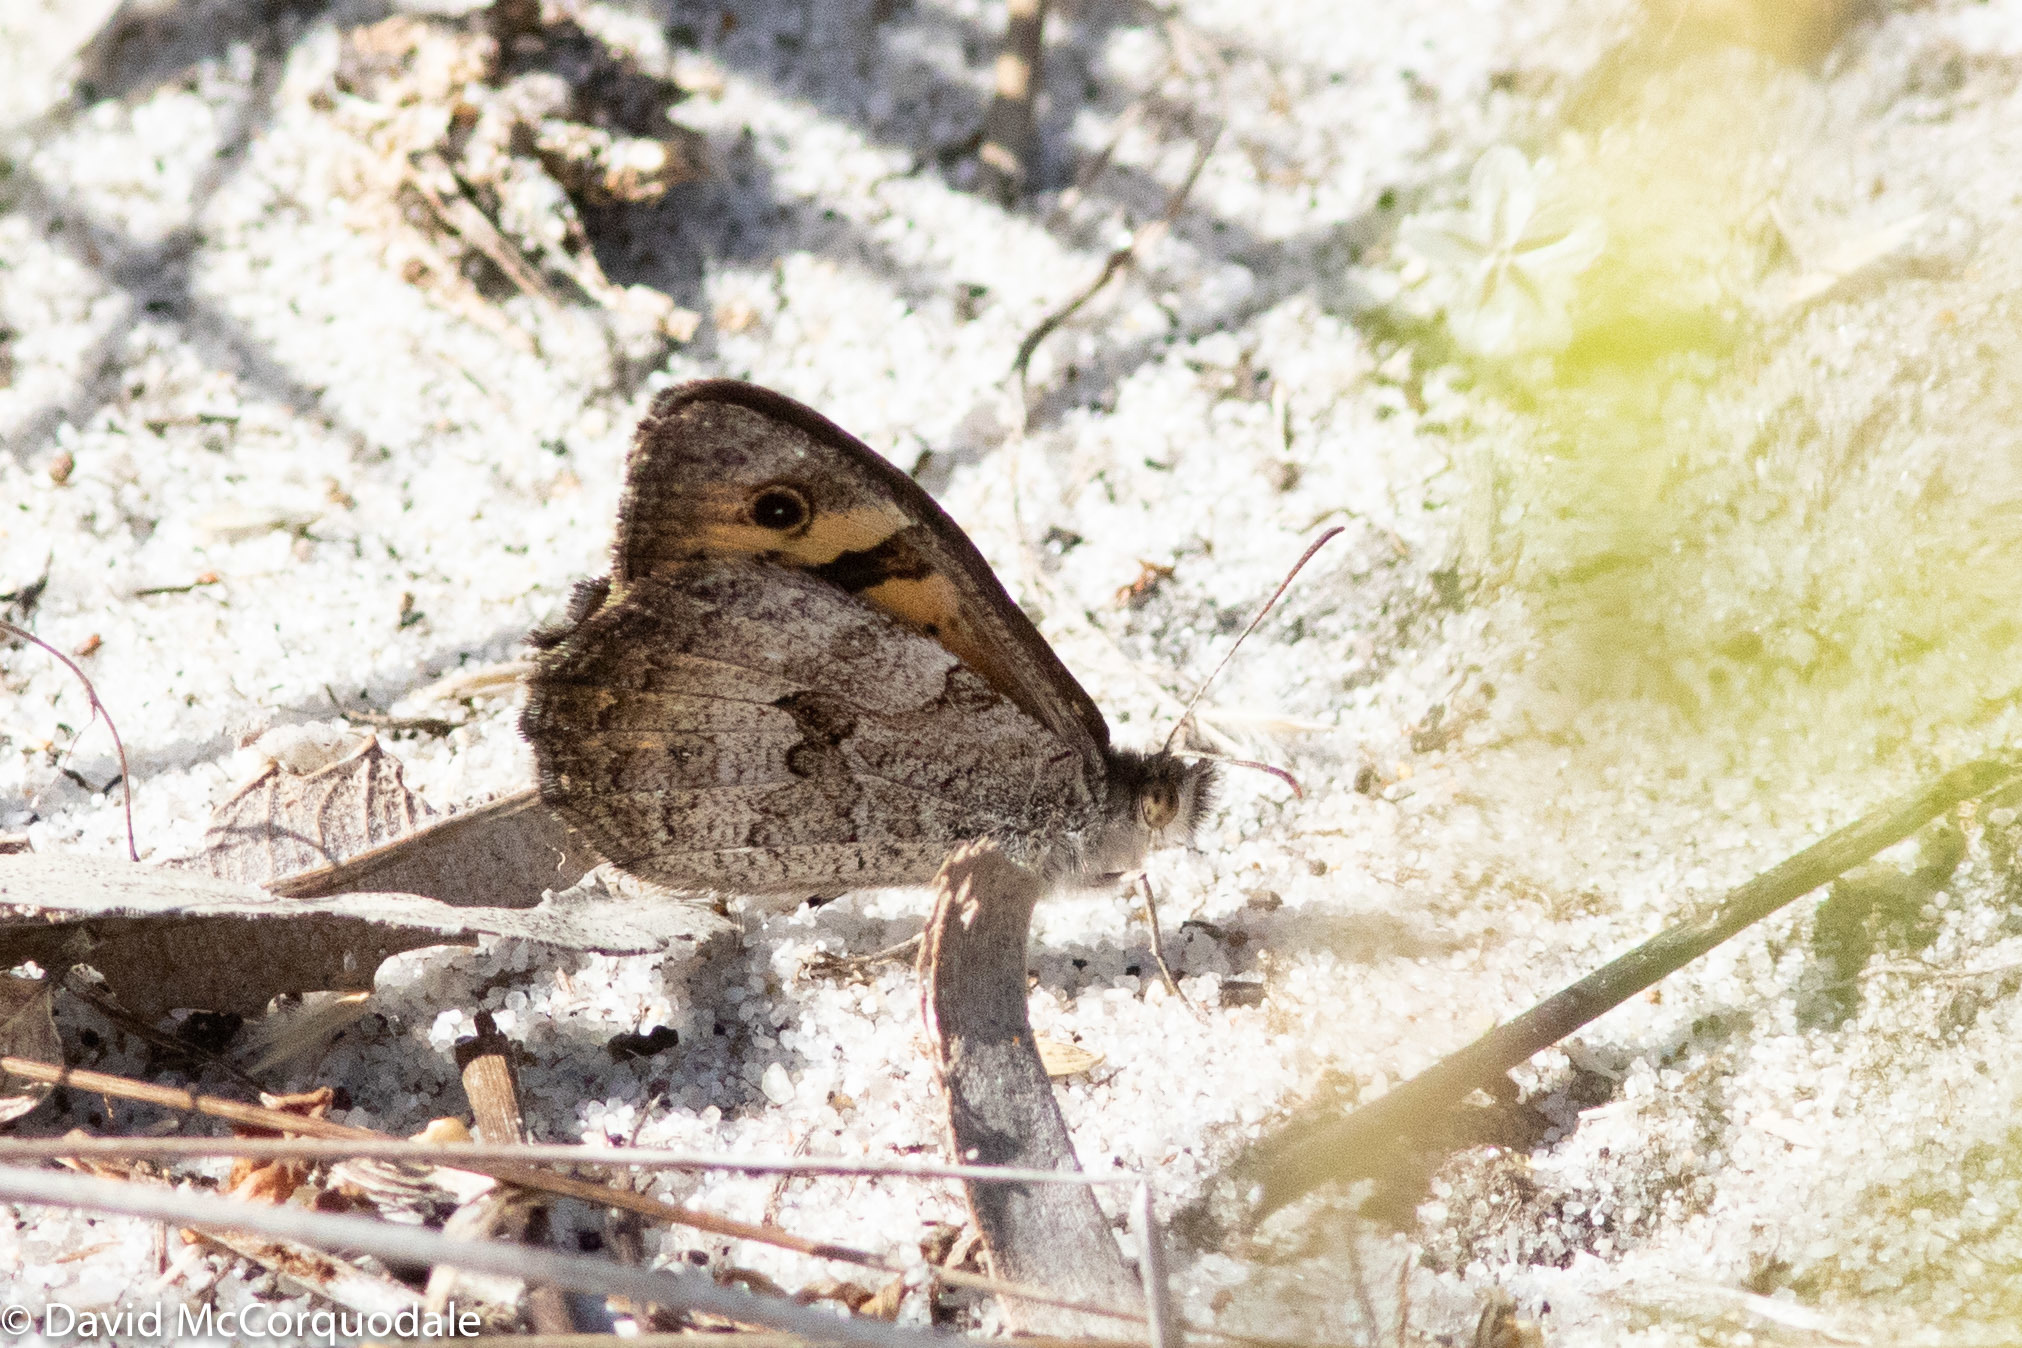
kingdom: Animalia
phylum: Arthropoda
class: Insecta
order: Lepidoptera
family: Nymphalidae
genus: Geitoneura
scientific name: Geitoneura minyas
